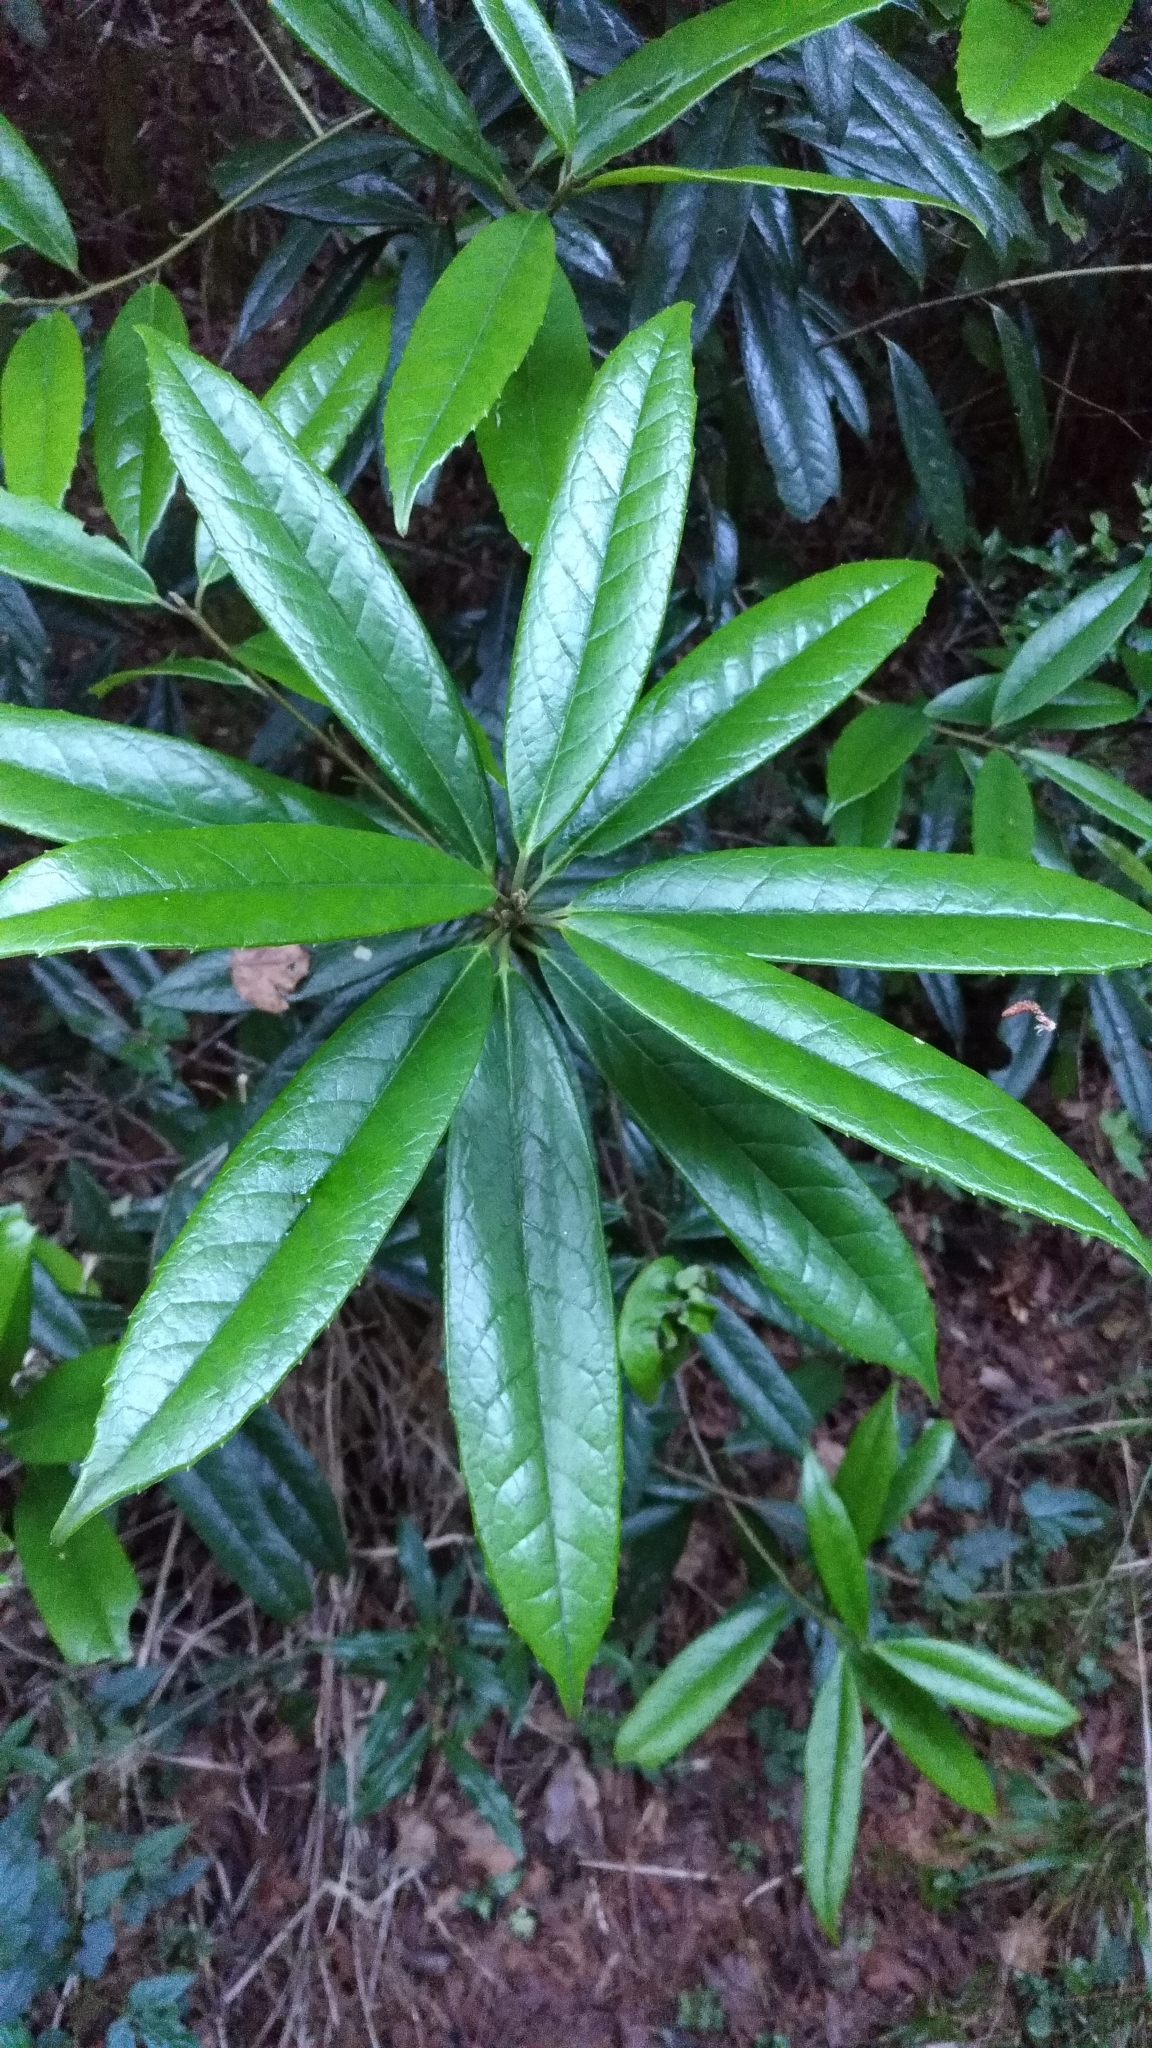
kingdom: Plantae
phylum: Tracheophyta
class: Magnoliopsida
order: Ericales
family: Symplocaceae
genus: Symplocos
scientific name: Symplocos stellaris
